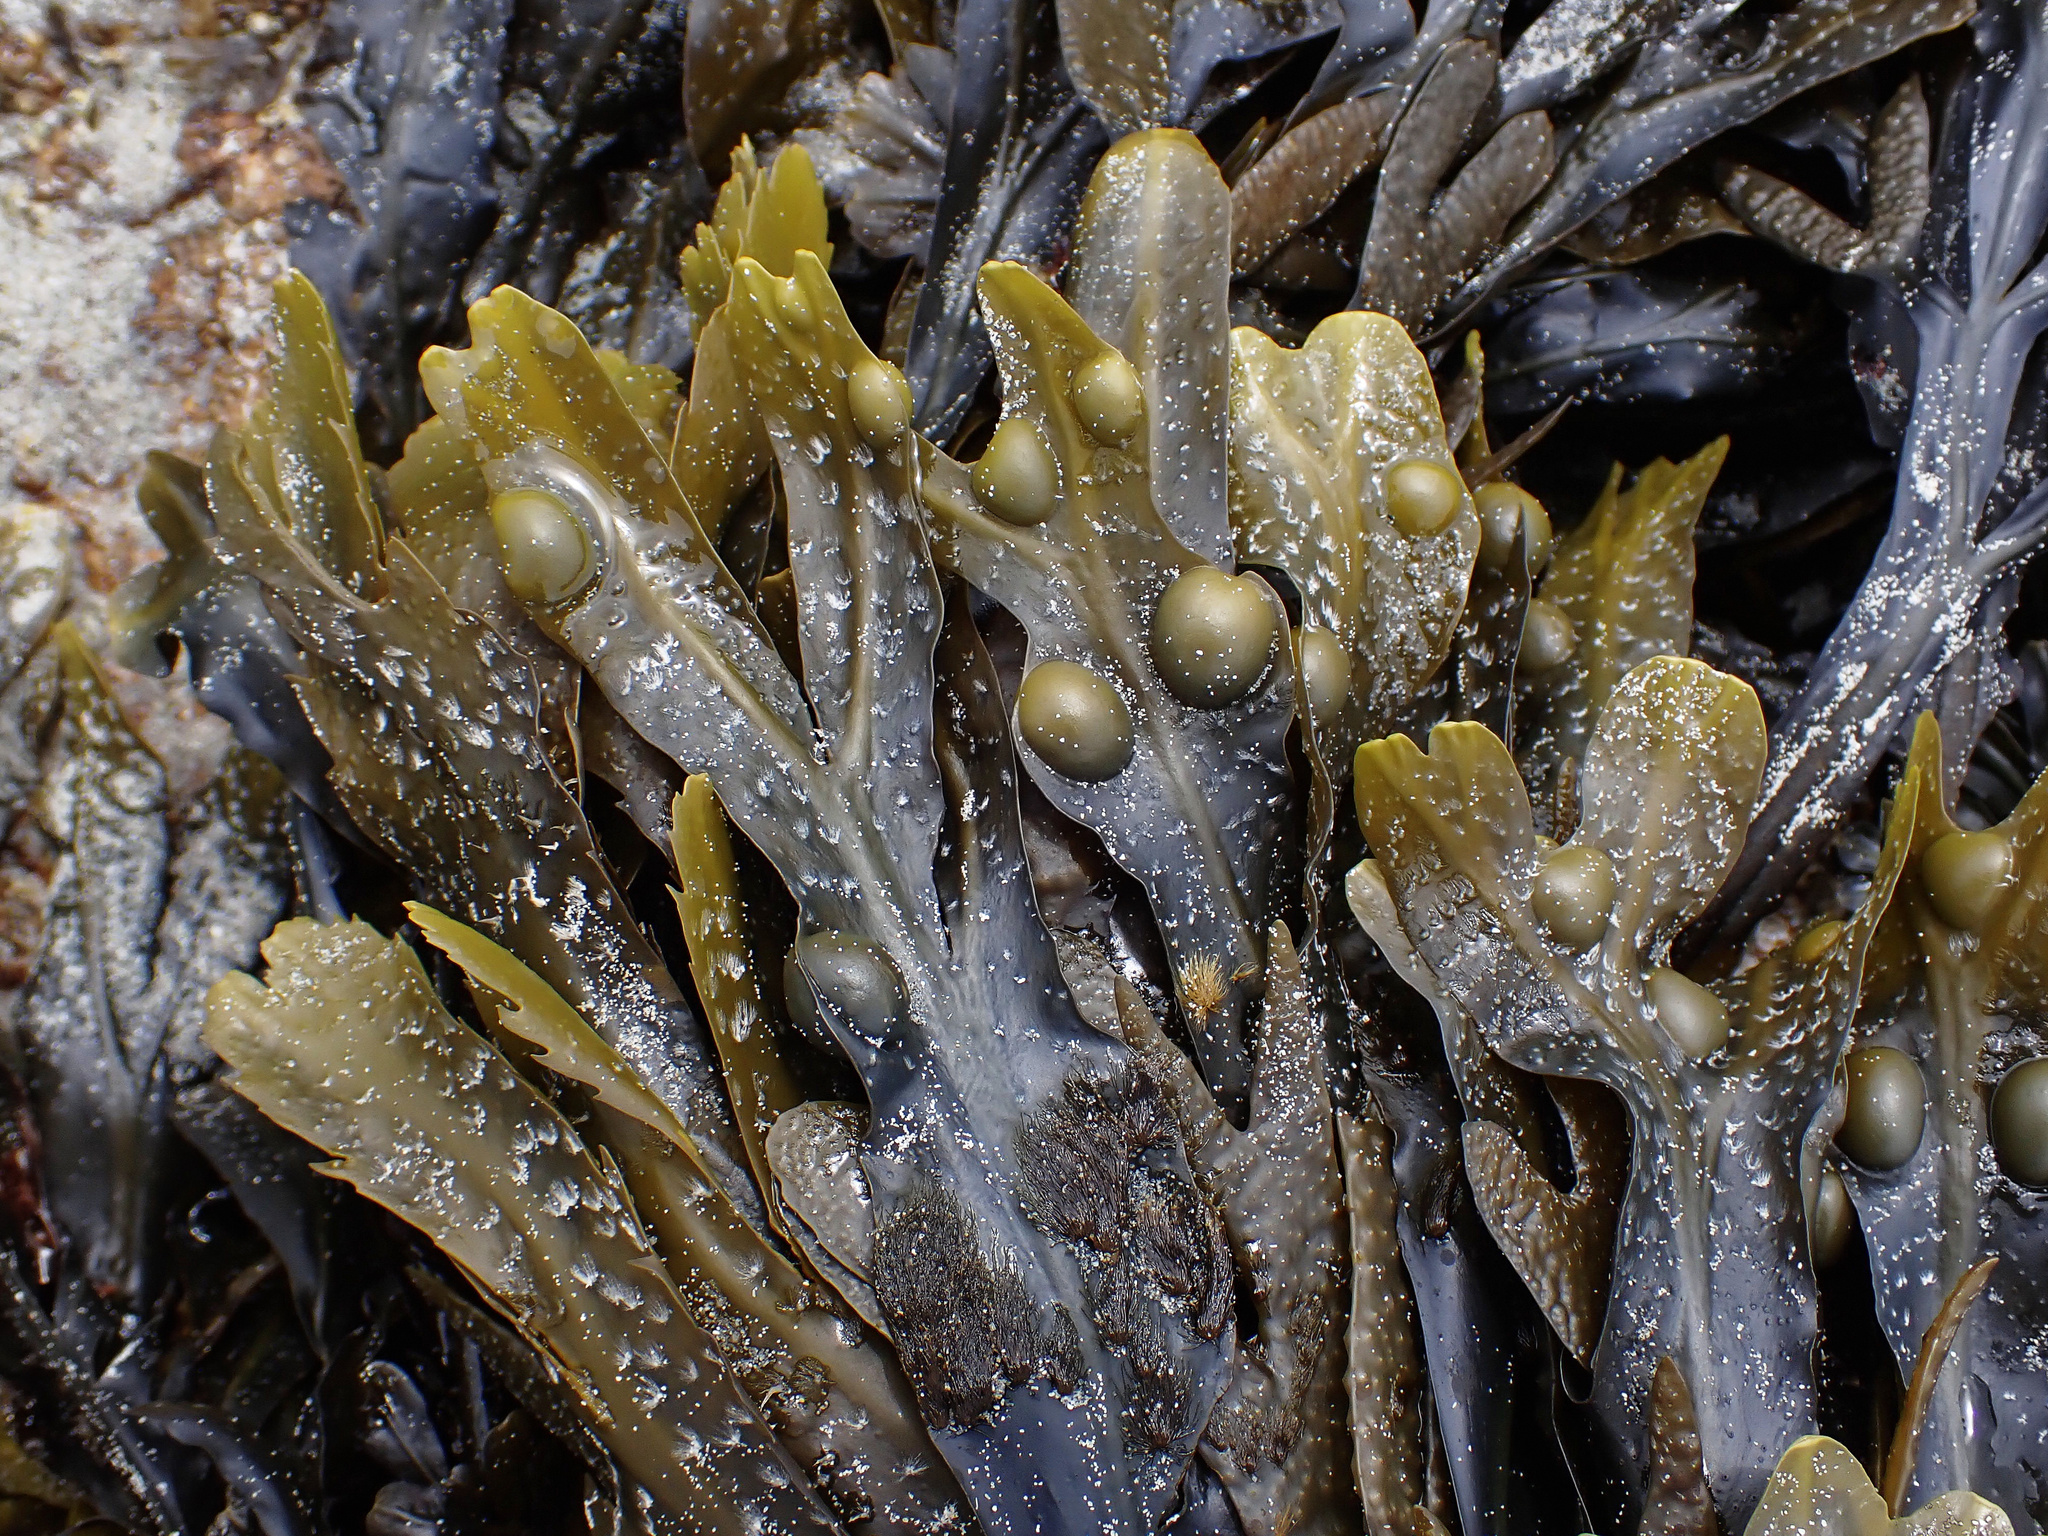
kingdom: Chromista
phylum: Ochrophyta
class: Phaeophyceae
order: Fucales
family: Fucaceae
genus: Fucus
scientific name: Fucus vesiculosus
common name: Bladder wrack
